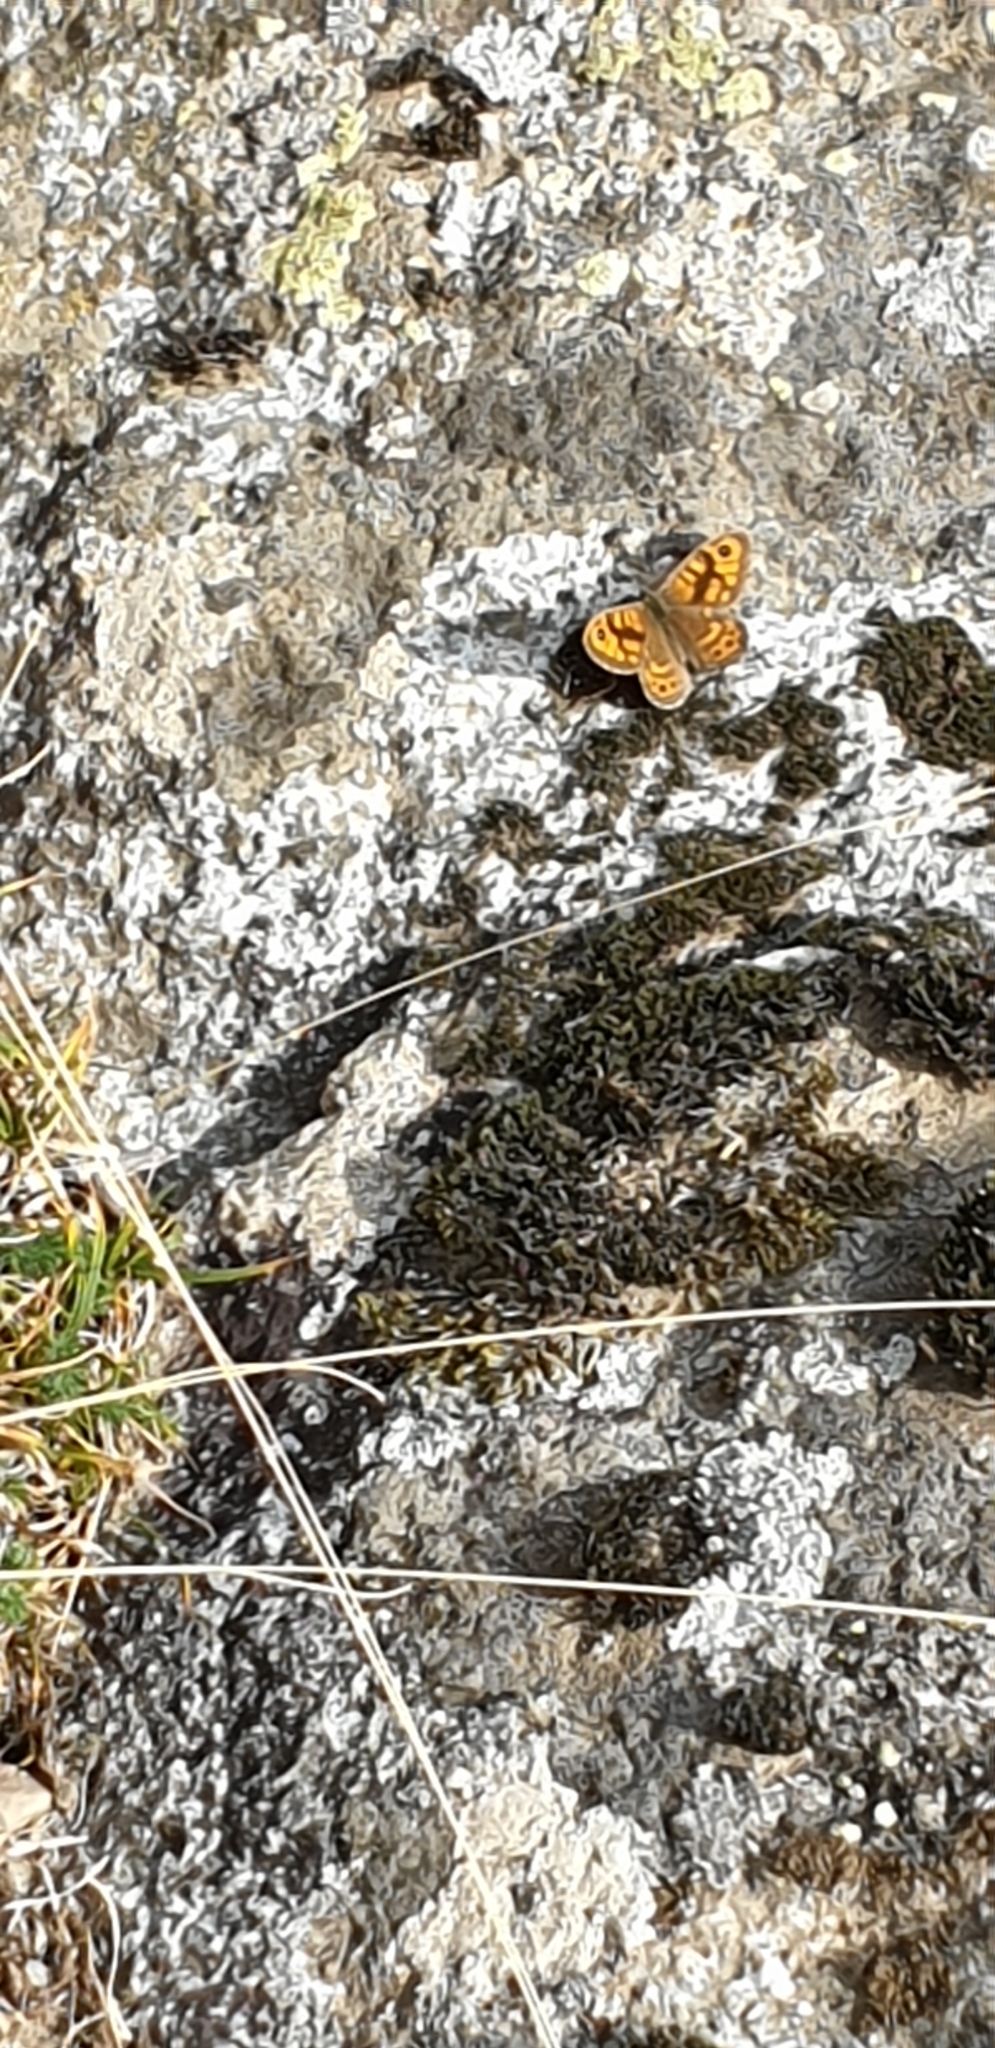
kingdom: Animalia
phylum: Arthropoda
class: Insecta
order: Lepidoptera
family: Nymphalidae
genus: Pararge
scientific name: Pararge Lasiommata megera
